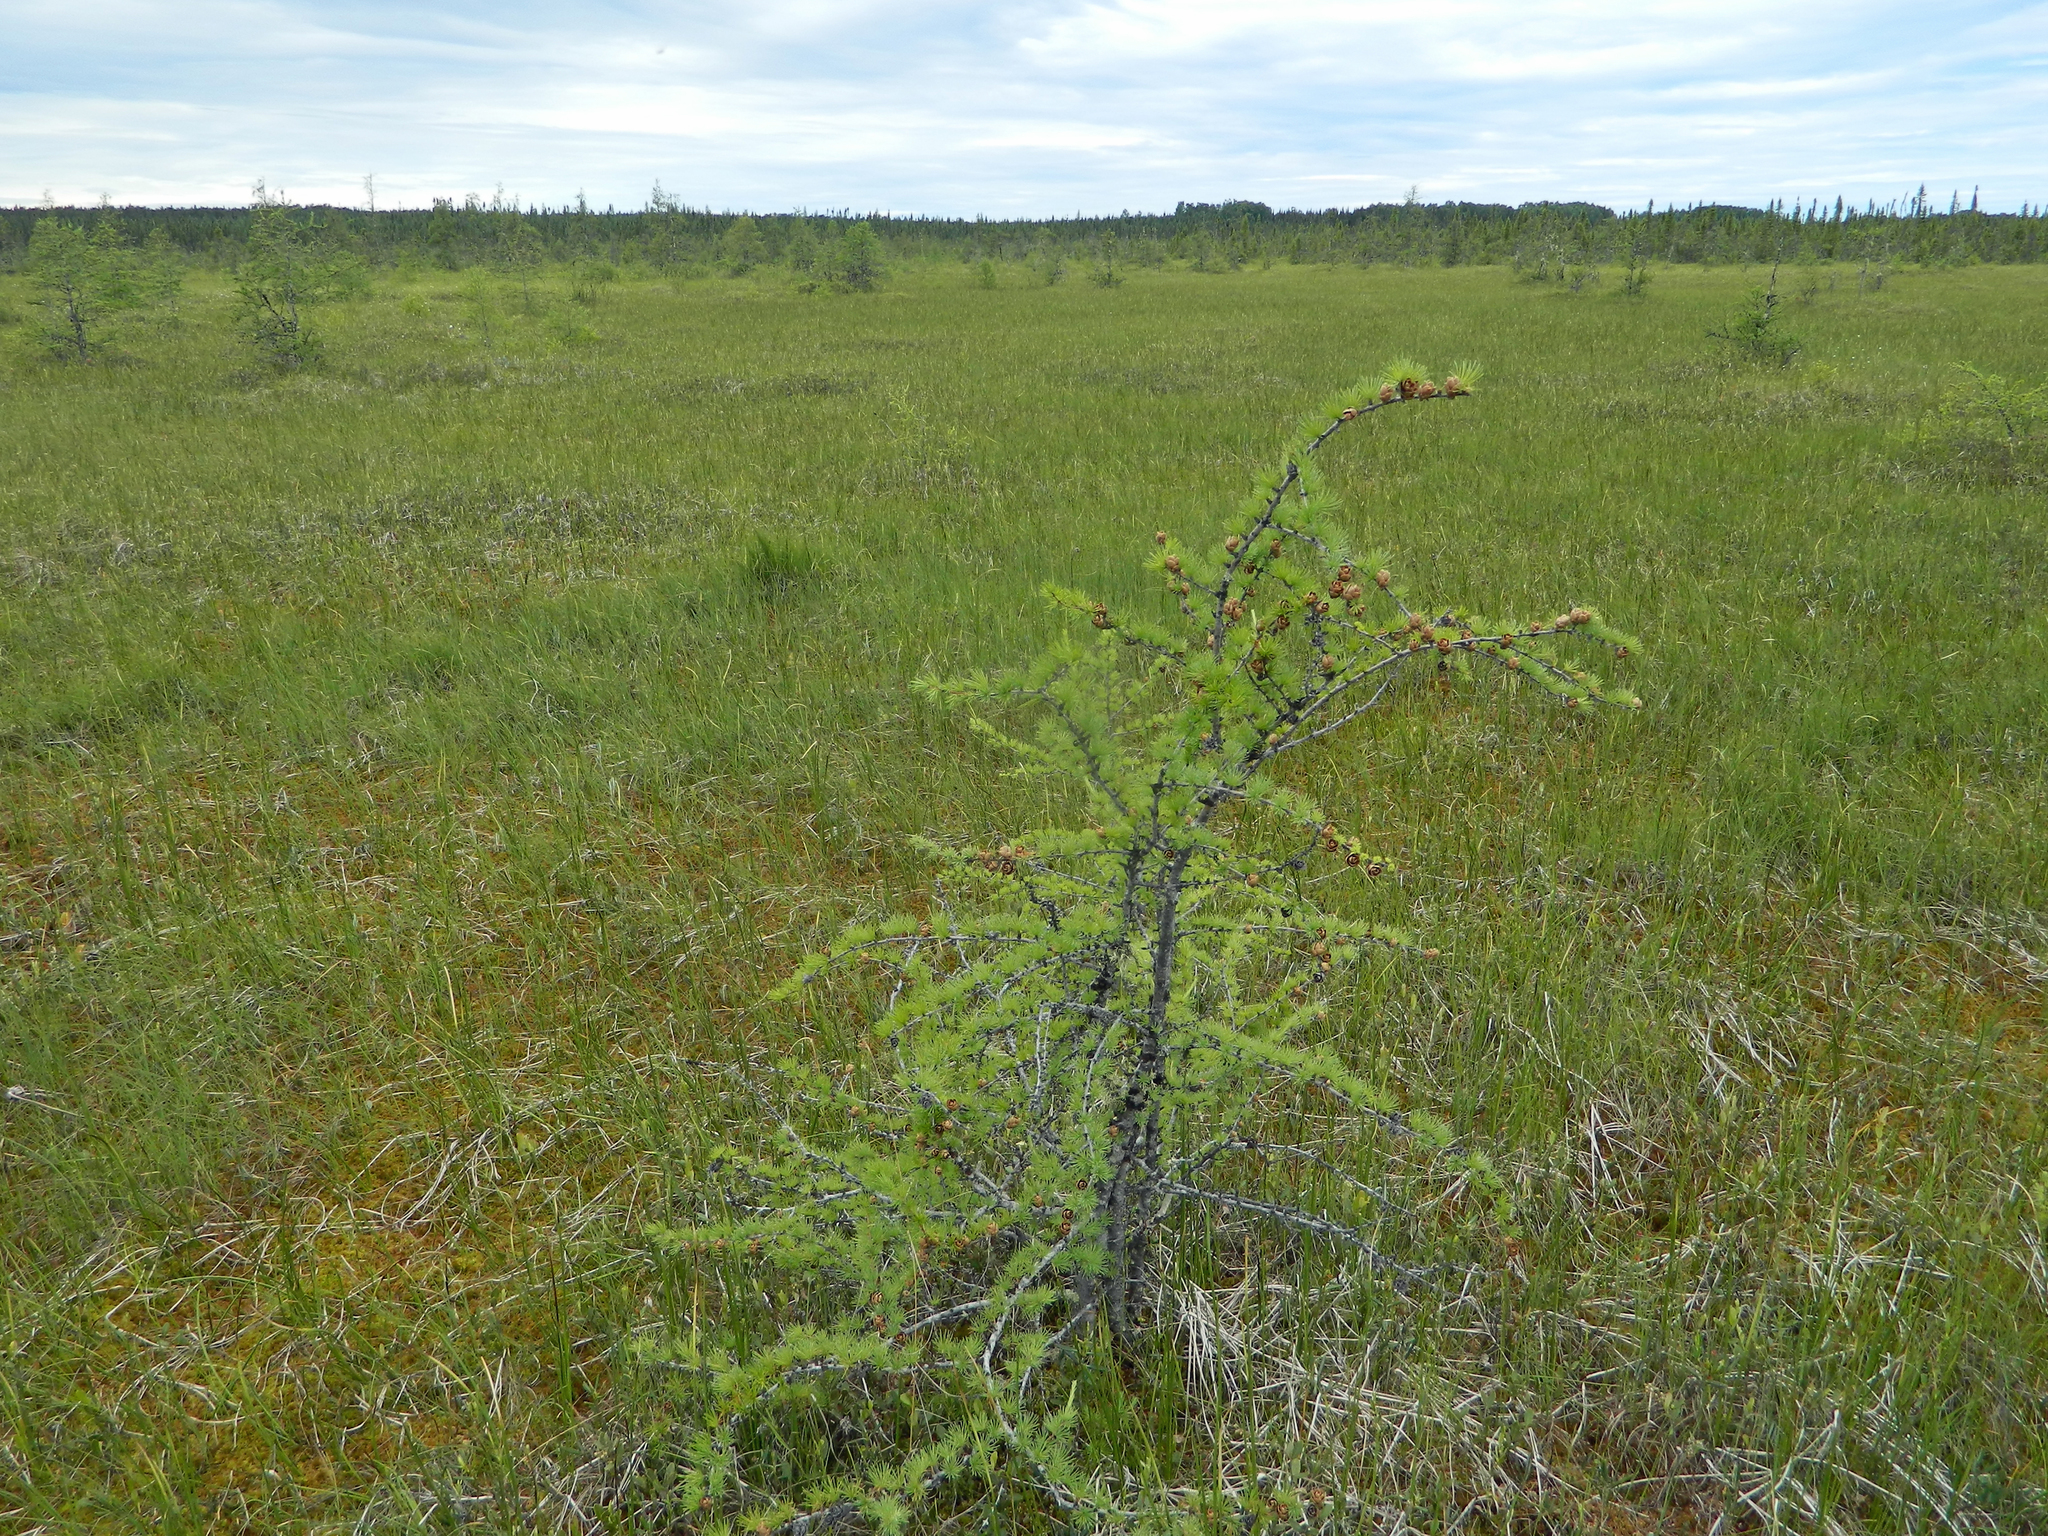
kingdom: Plantae
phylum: Tracheophyta
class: Pinopsida
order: Pinales
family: Pinaceae
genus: Larix
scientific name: Larix laricina
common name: American larch
